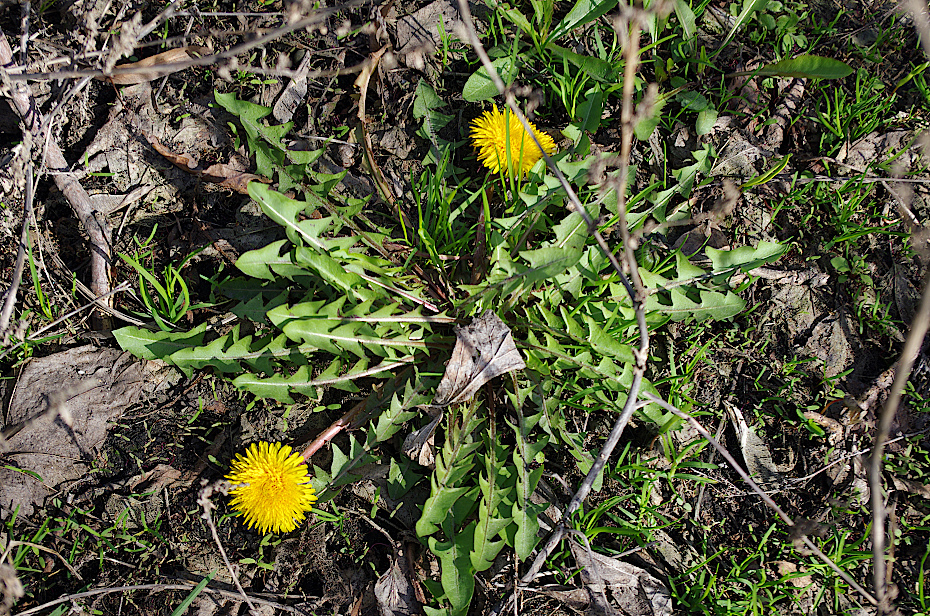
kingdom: Plantae
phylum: Tracheophyta
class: Magnoliopsida
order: Asterales
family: Asteraceae
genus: Taraxacum
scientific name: Taraxacum officinale
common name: Common dandelion
